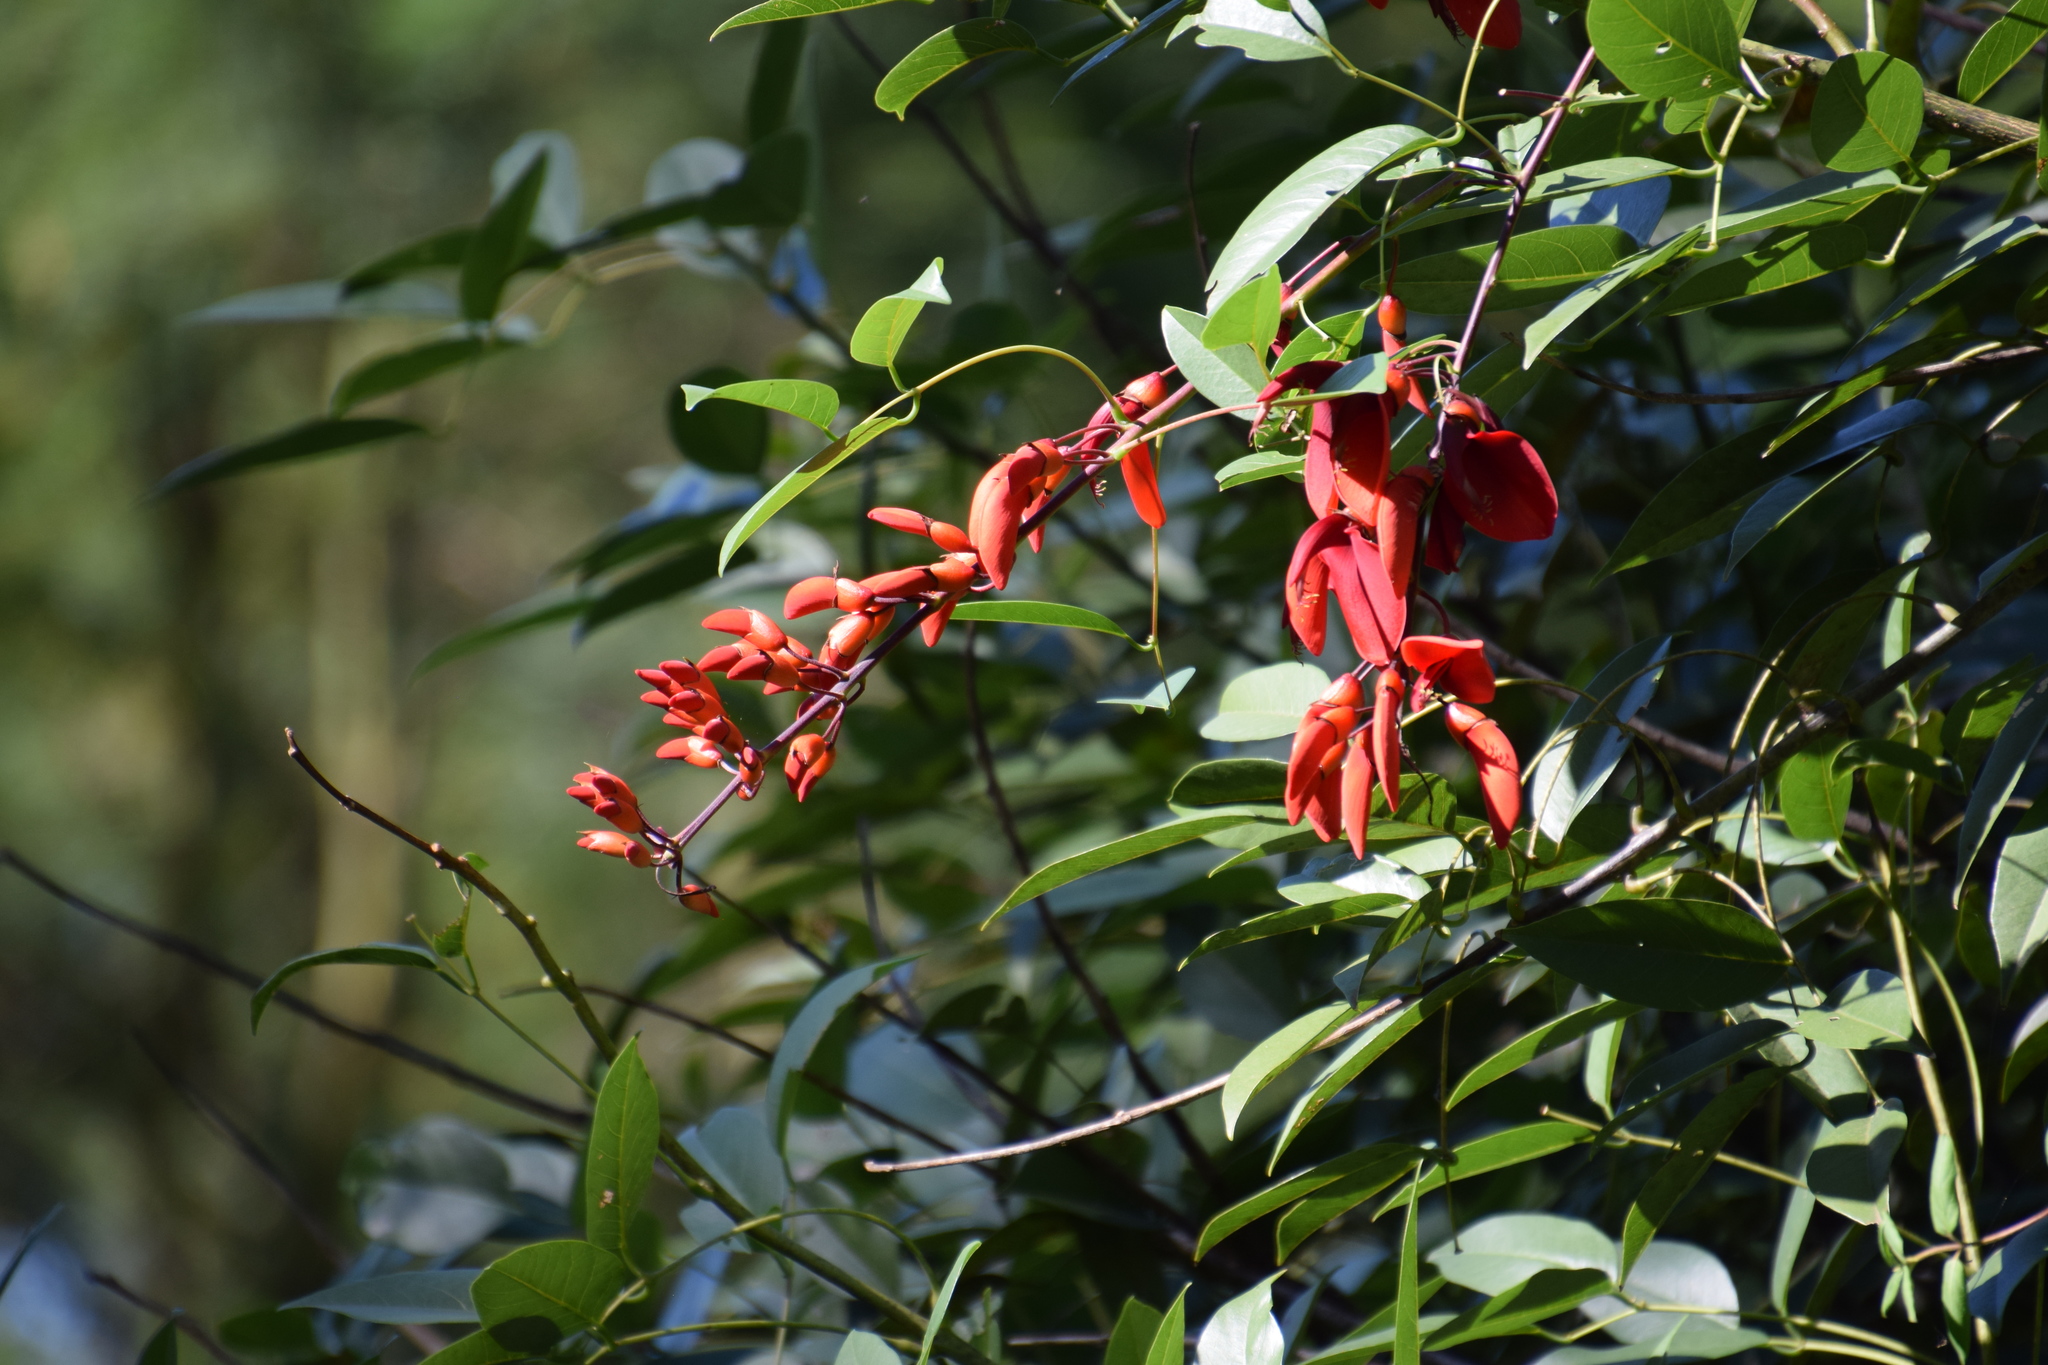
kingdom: Plantae
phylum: Tracheophyta
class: Magnoliopsida
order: Fabales
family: Fabaceae
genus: Erythrina
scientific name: Erythrina crista-galli
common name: Cockspur coral tree
